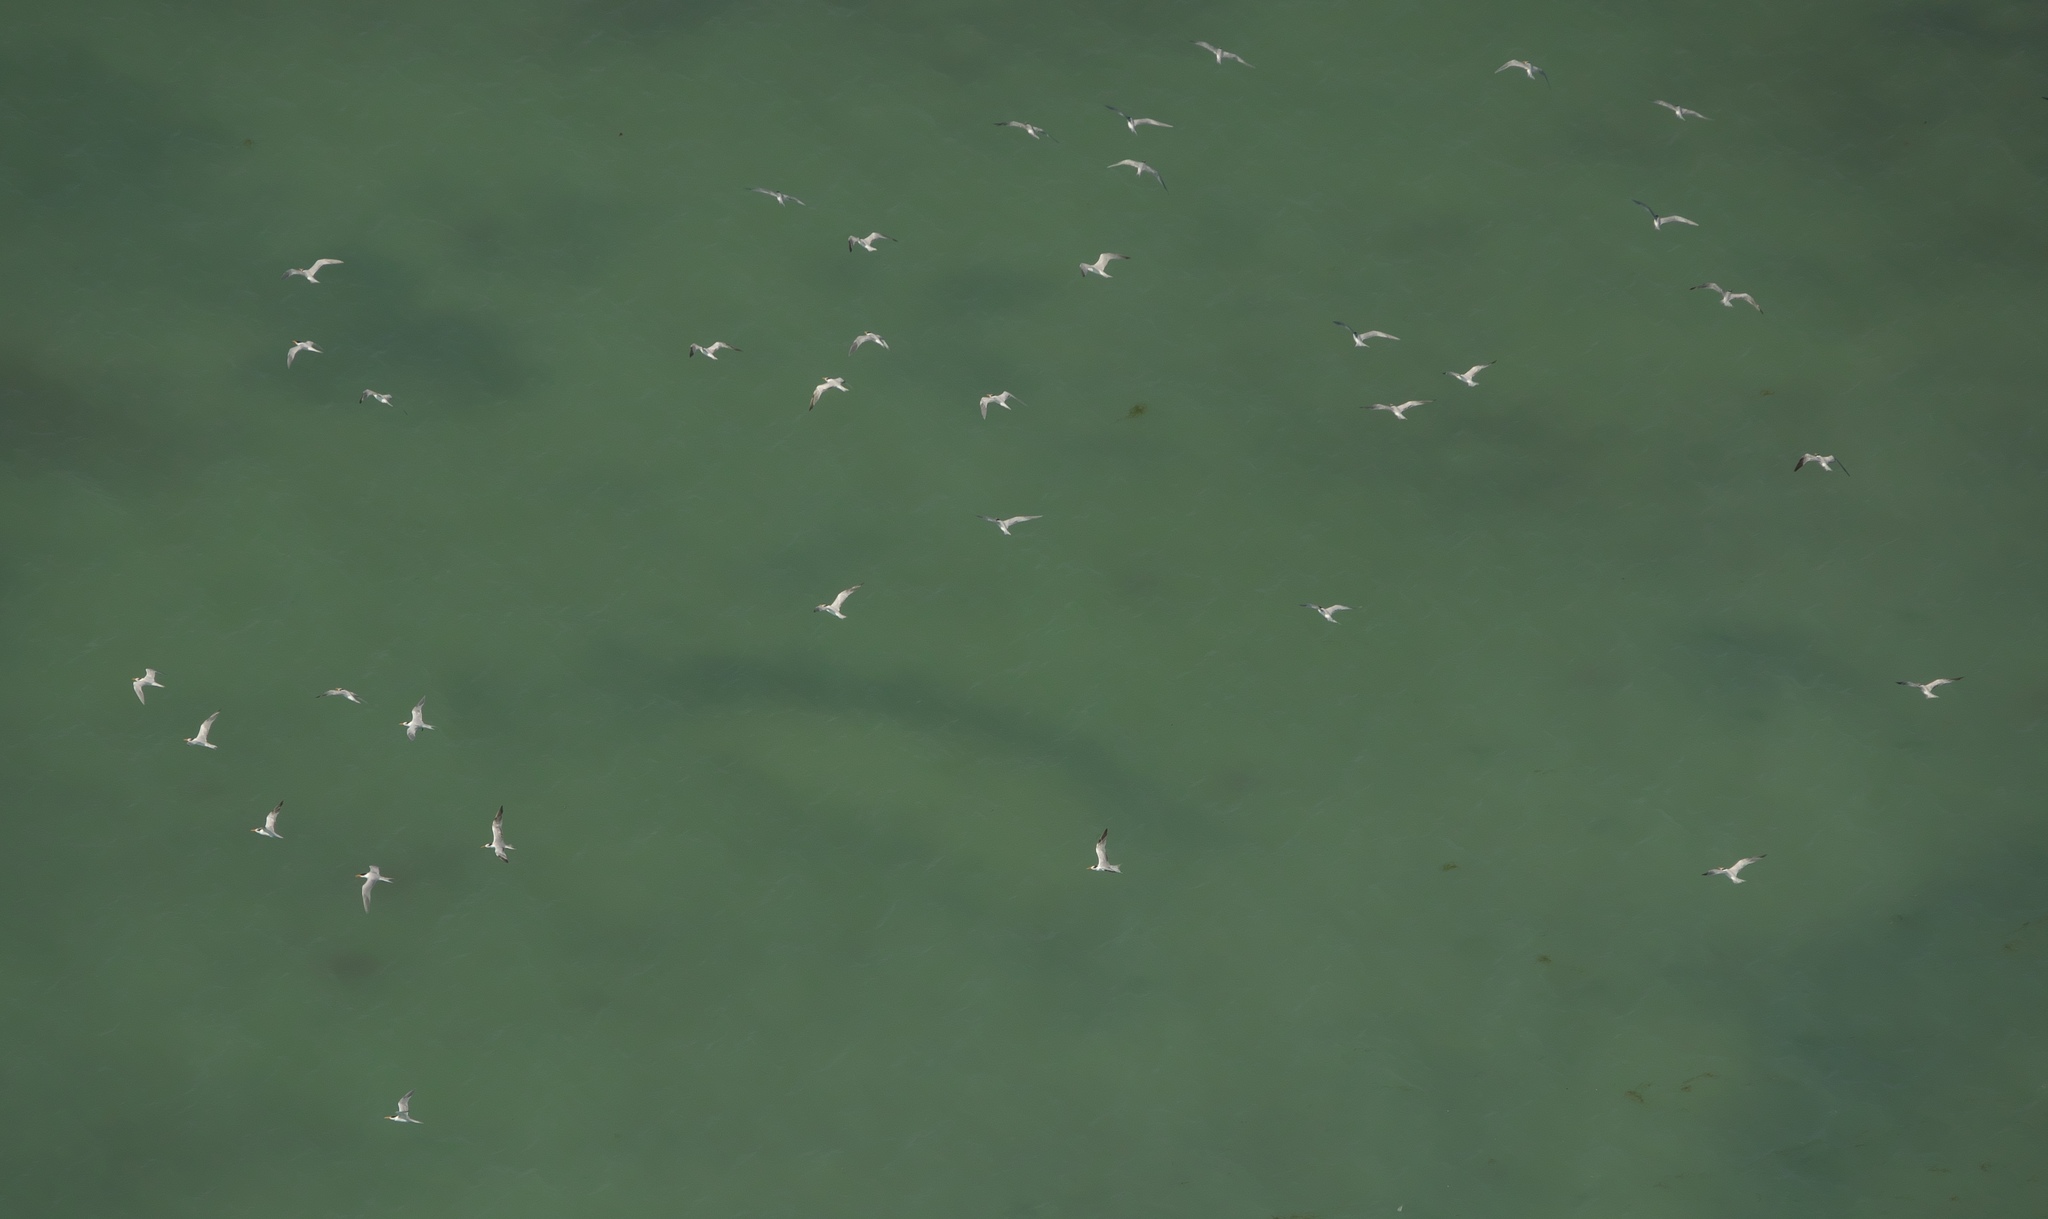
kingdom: Animalia
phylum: Chordata
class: Aves
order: Charadriiformes
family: Laridae
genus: Sternula
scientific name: Sternula antillarum
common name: Least tern
